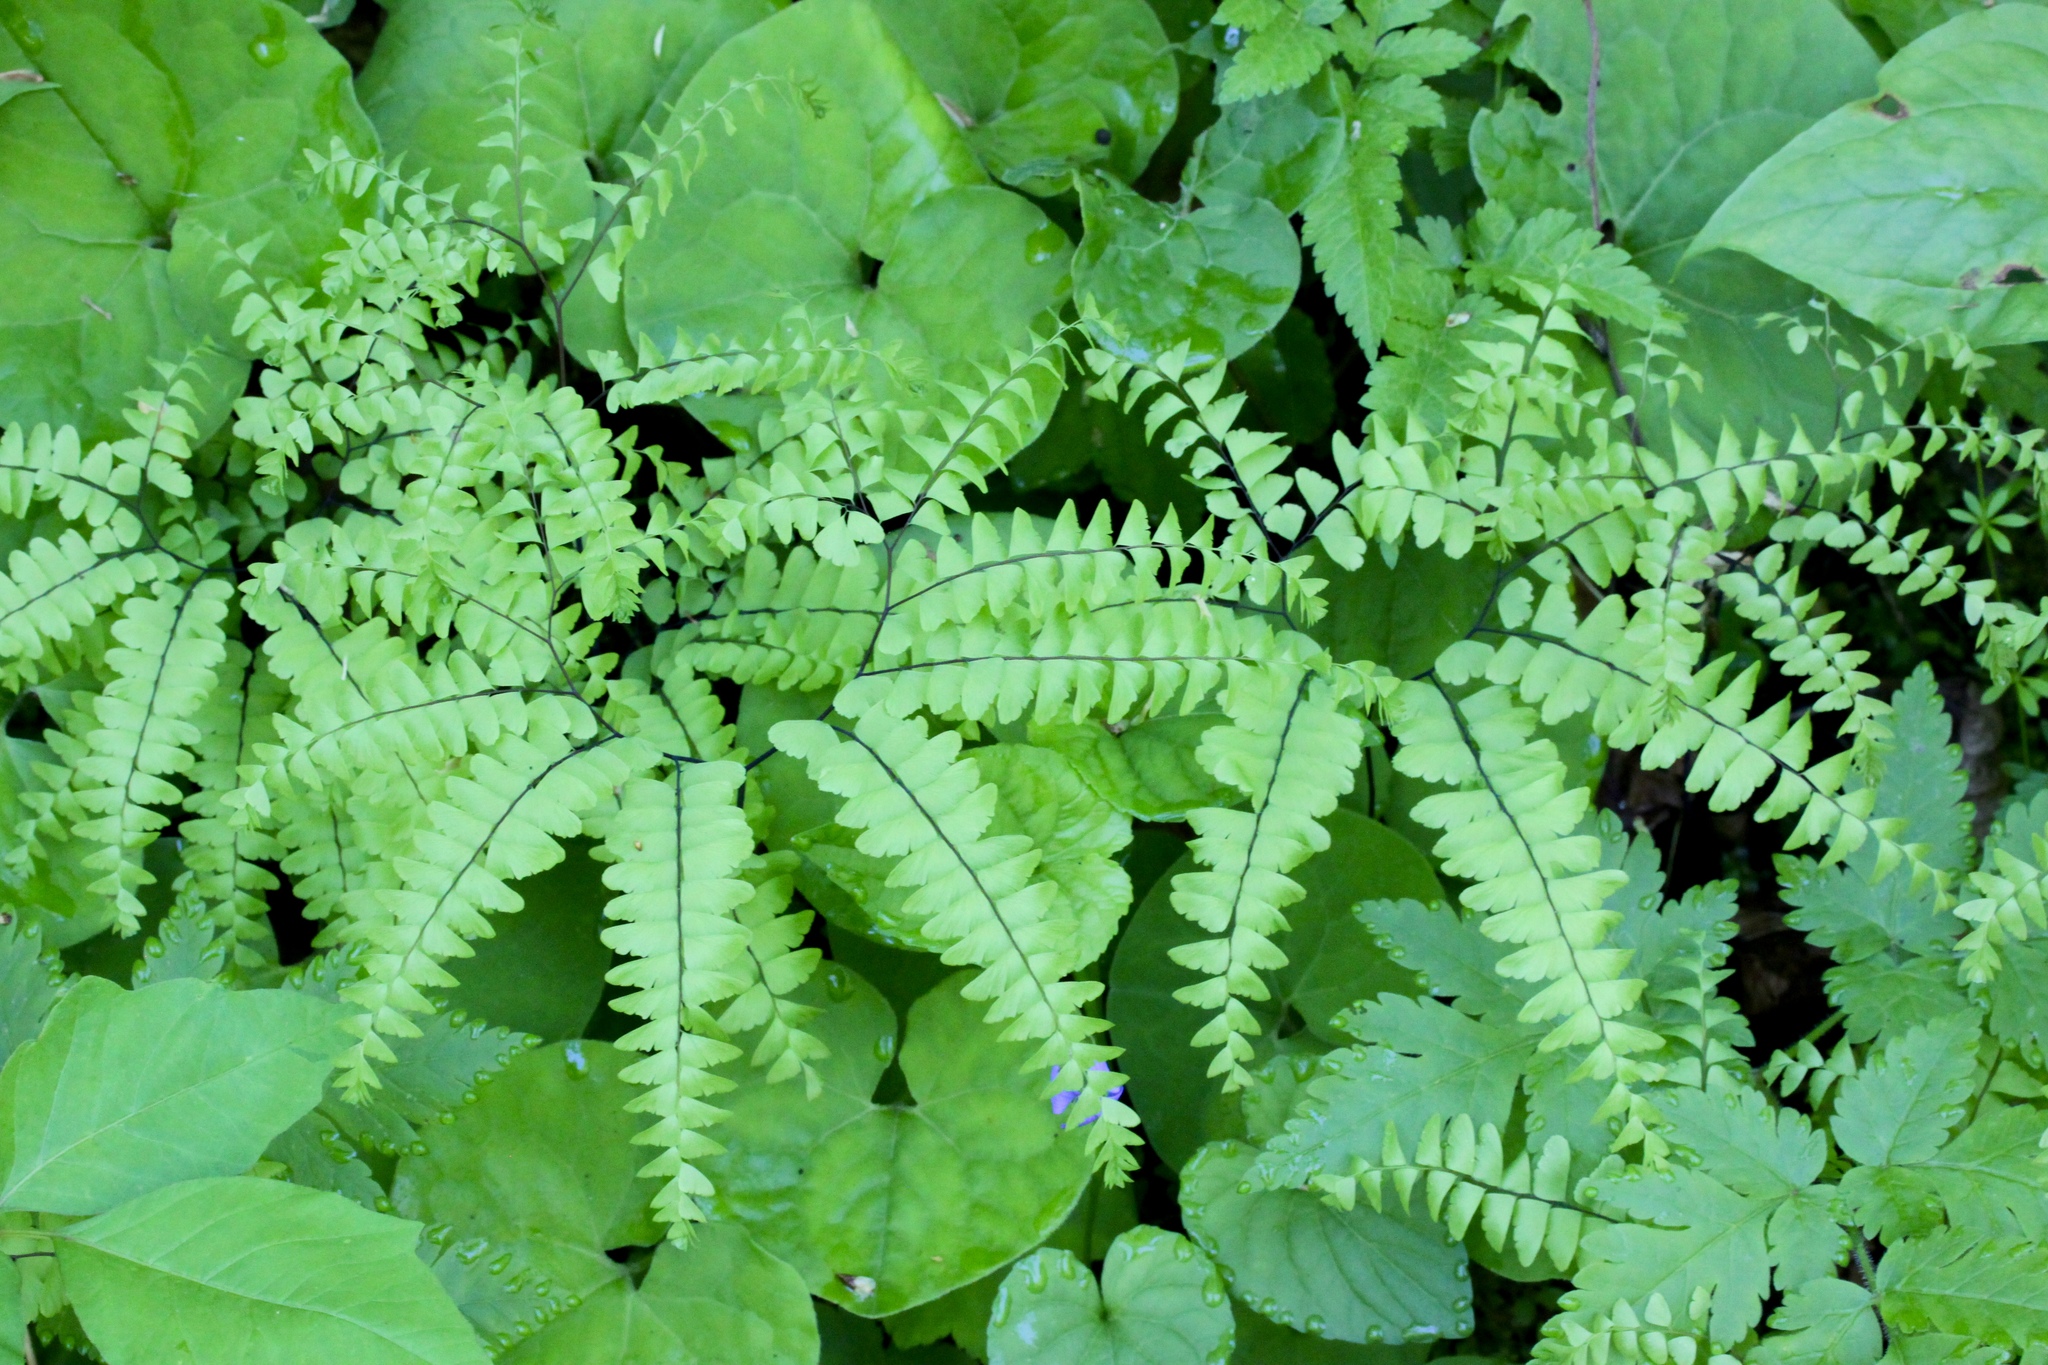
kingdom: Plantae
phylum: Tracheophyta
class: Polypodiopsida
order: Polypodiales
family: Pteridaceae
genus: Adiantum
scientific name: Adiantum pedatum
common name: Five-finger fern
